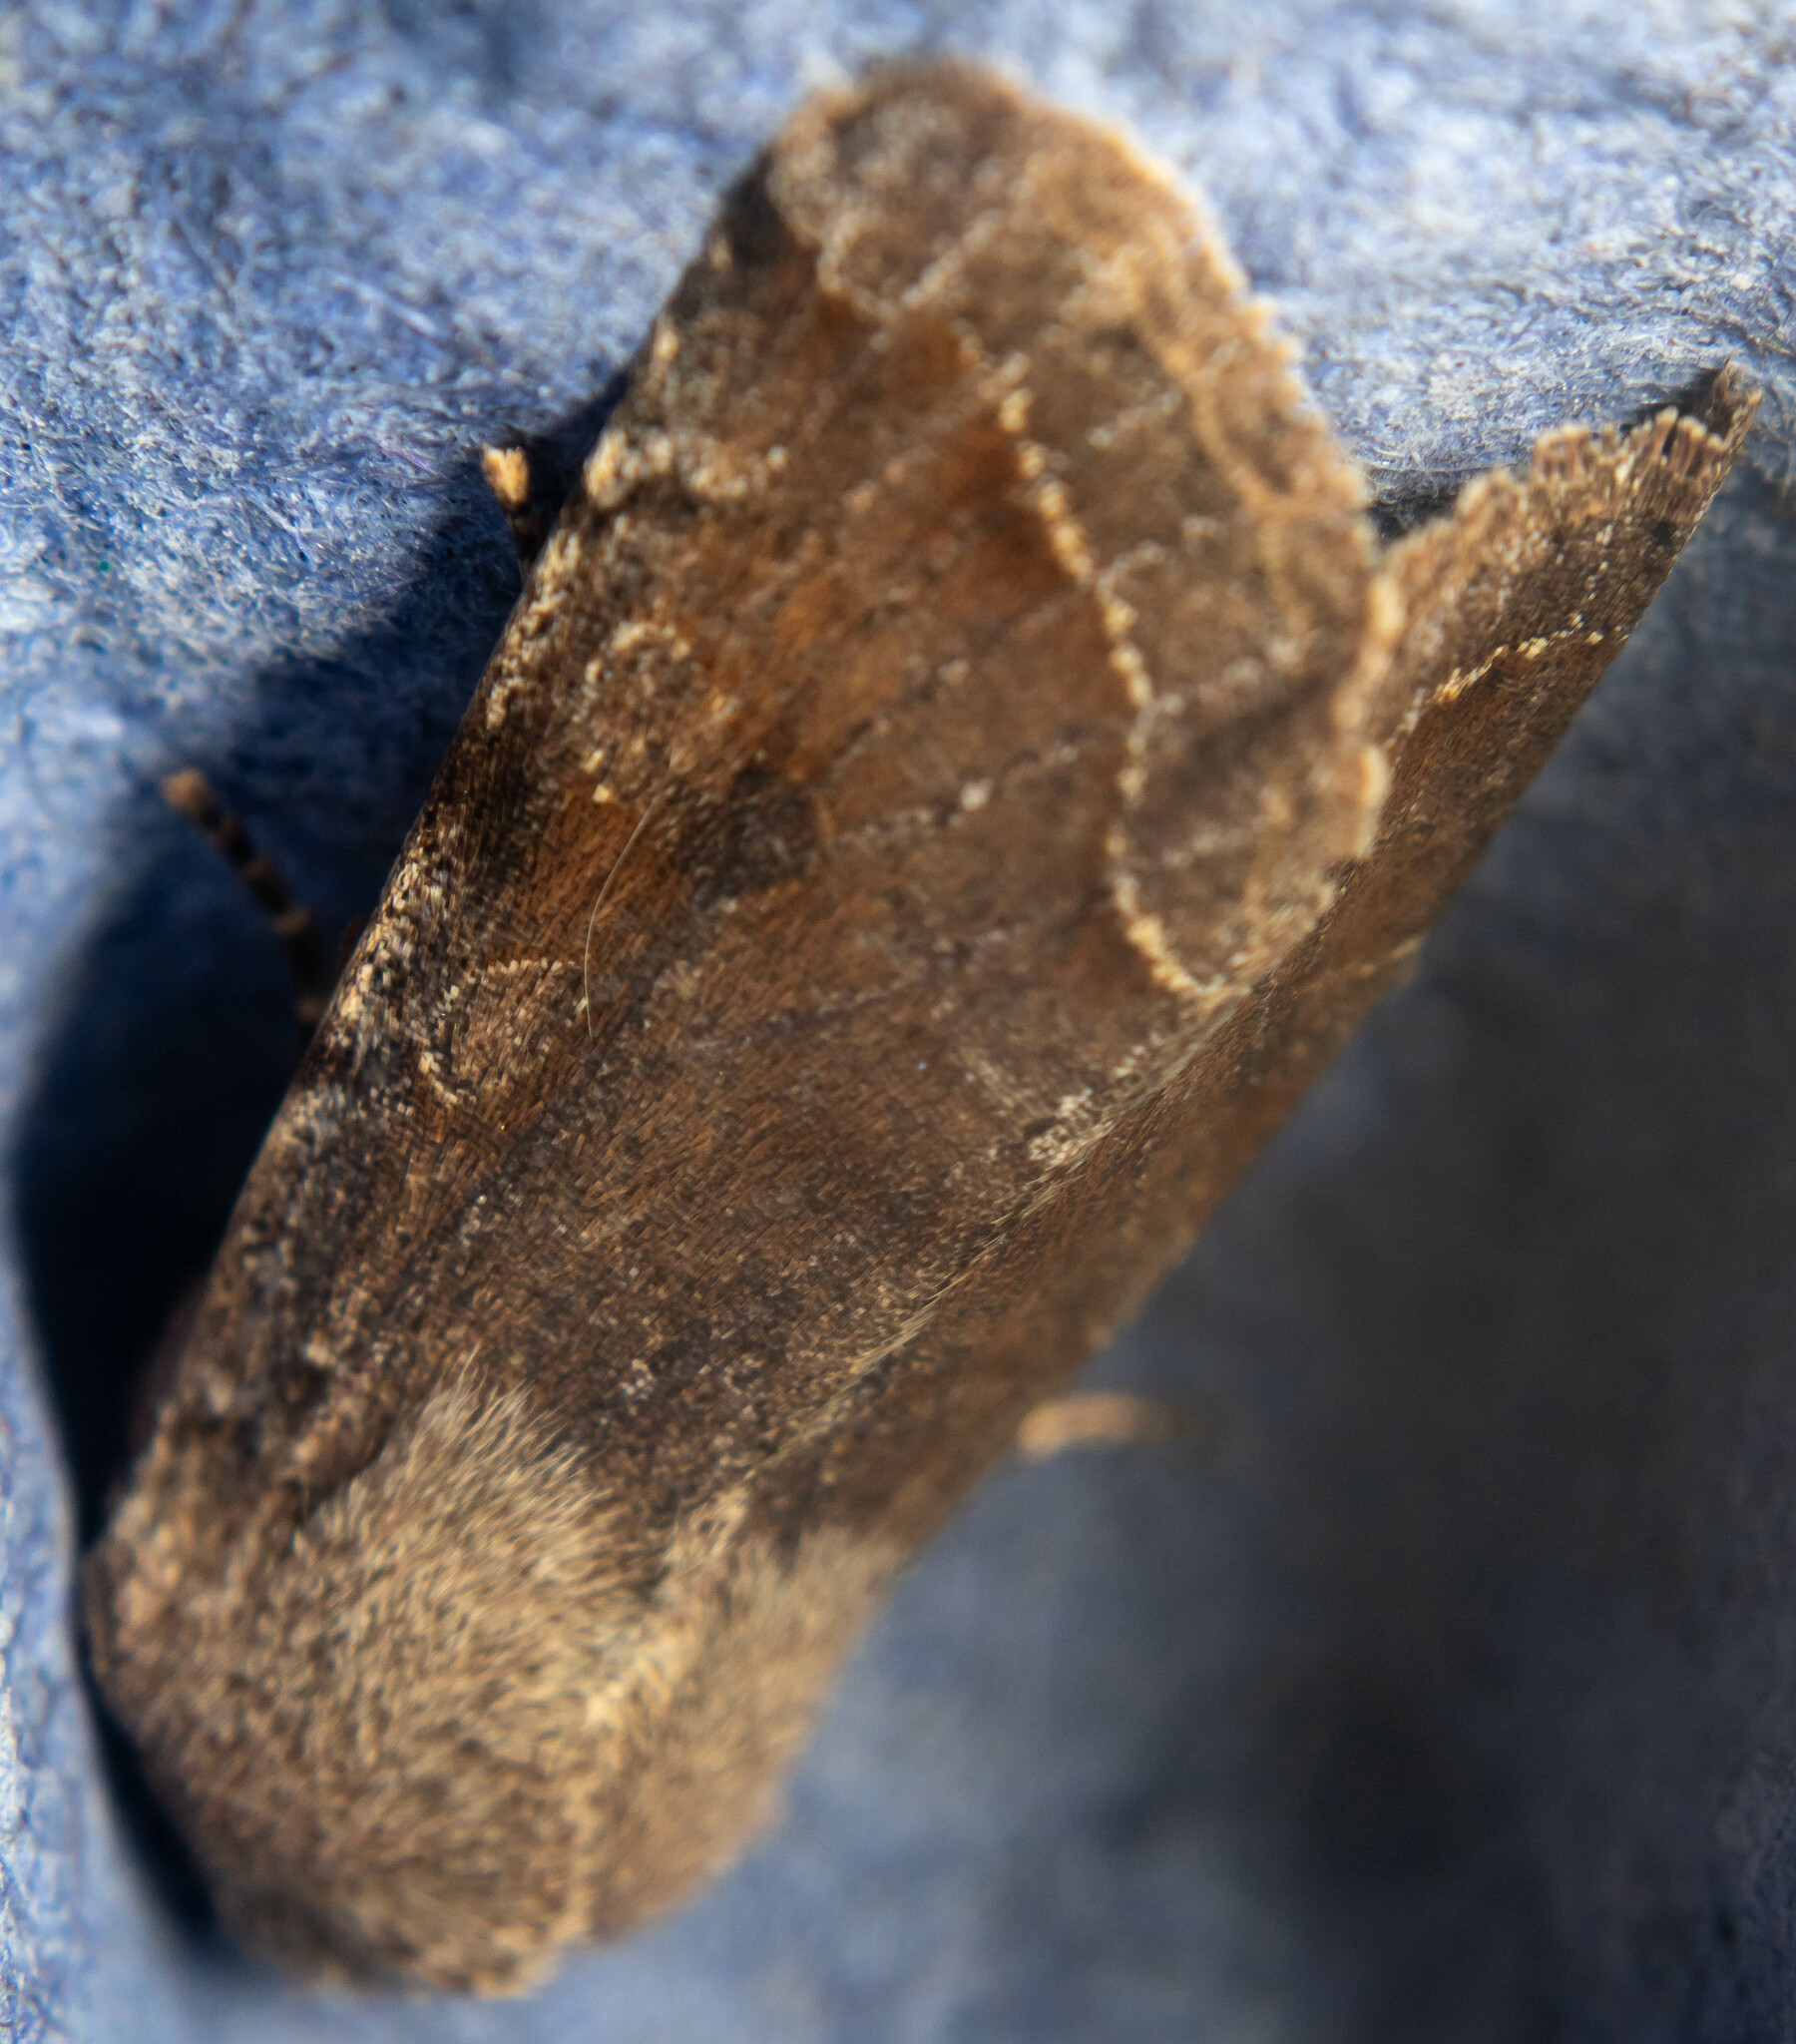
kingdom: Animalia
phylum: Arthropoda
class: Insecta
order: Lepidoptera
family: Noctuidae
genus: Orthosia
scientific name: Orthosia incerta
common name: Clouded drab
